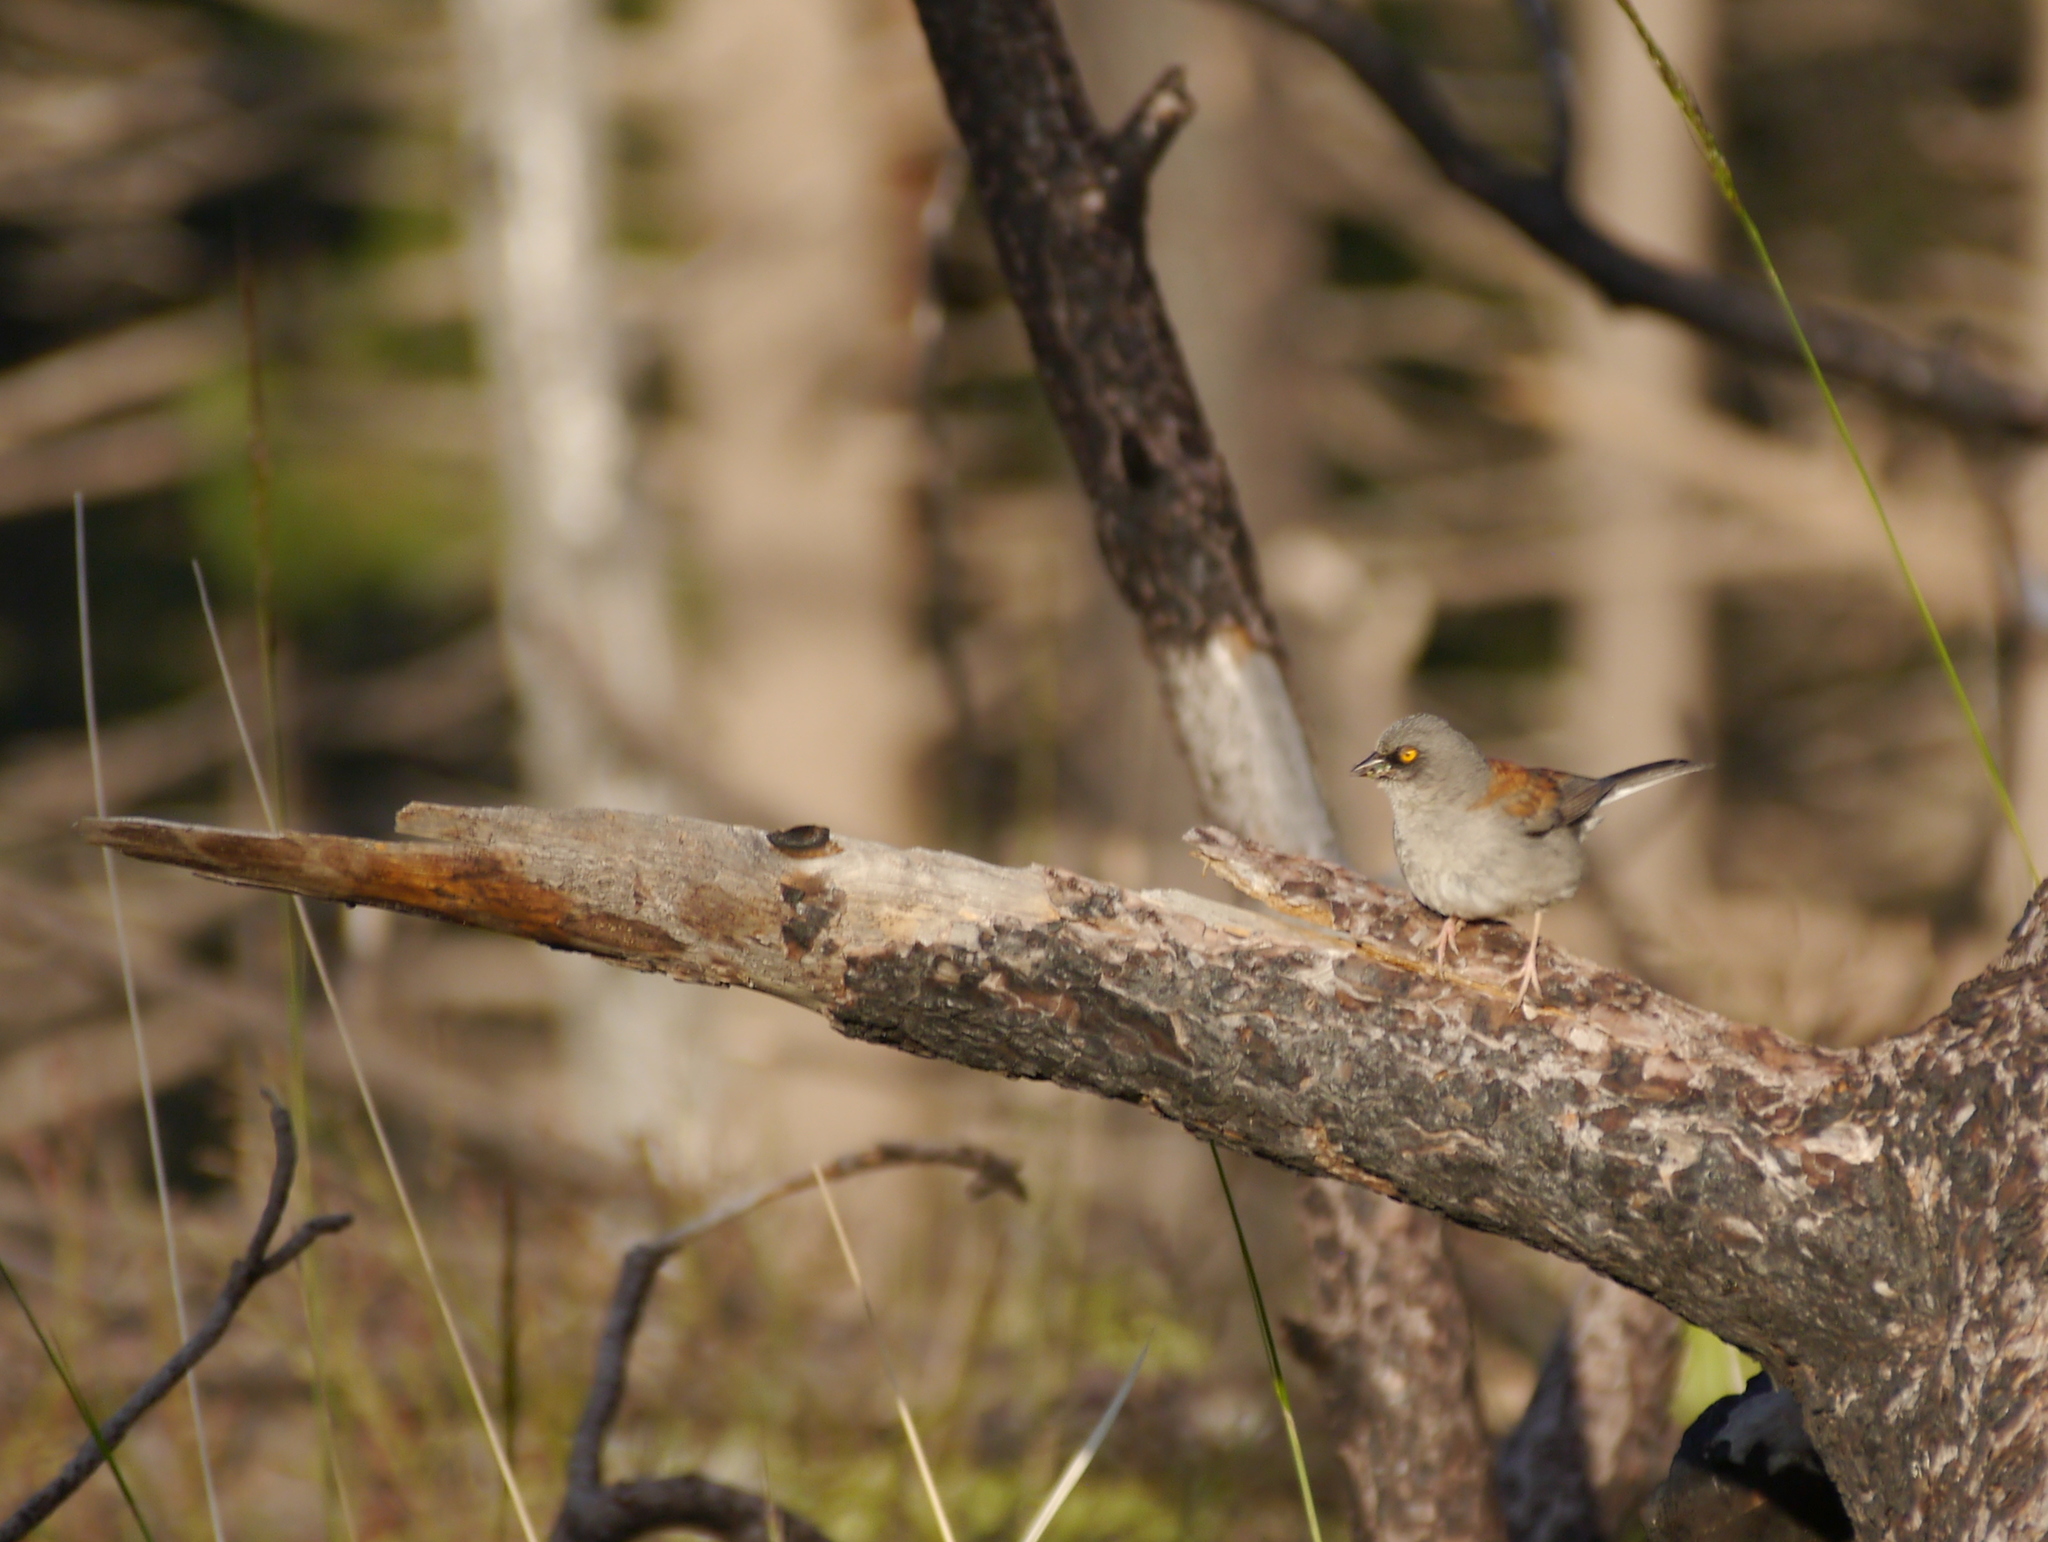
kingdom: Animalia
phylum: Chordata
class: Aves
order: Passeriformes
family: Passerellidae
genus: Junco
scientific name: Junco phaeonotus
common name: Yellow-eyed junco
